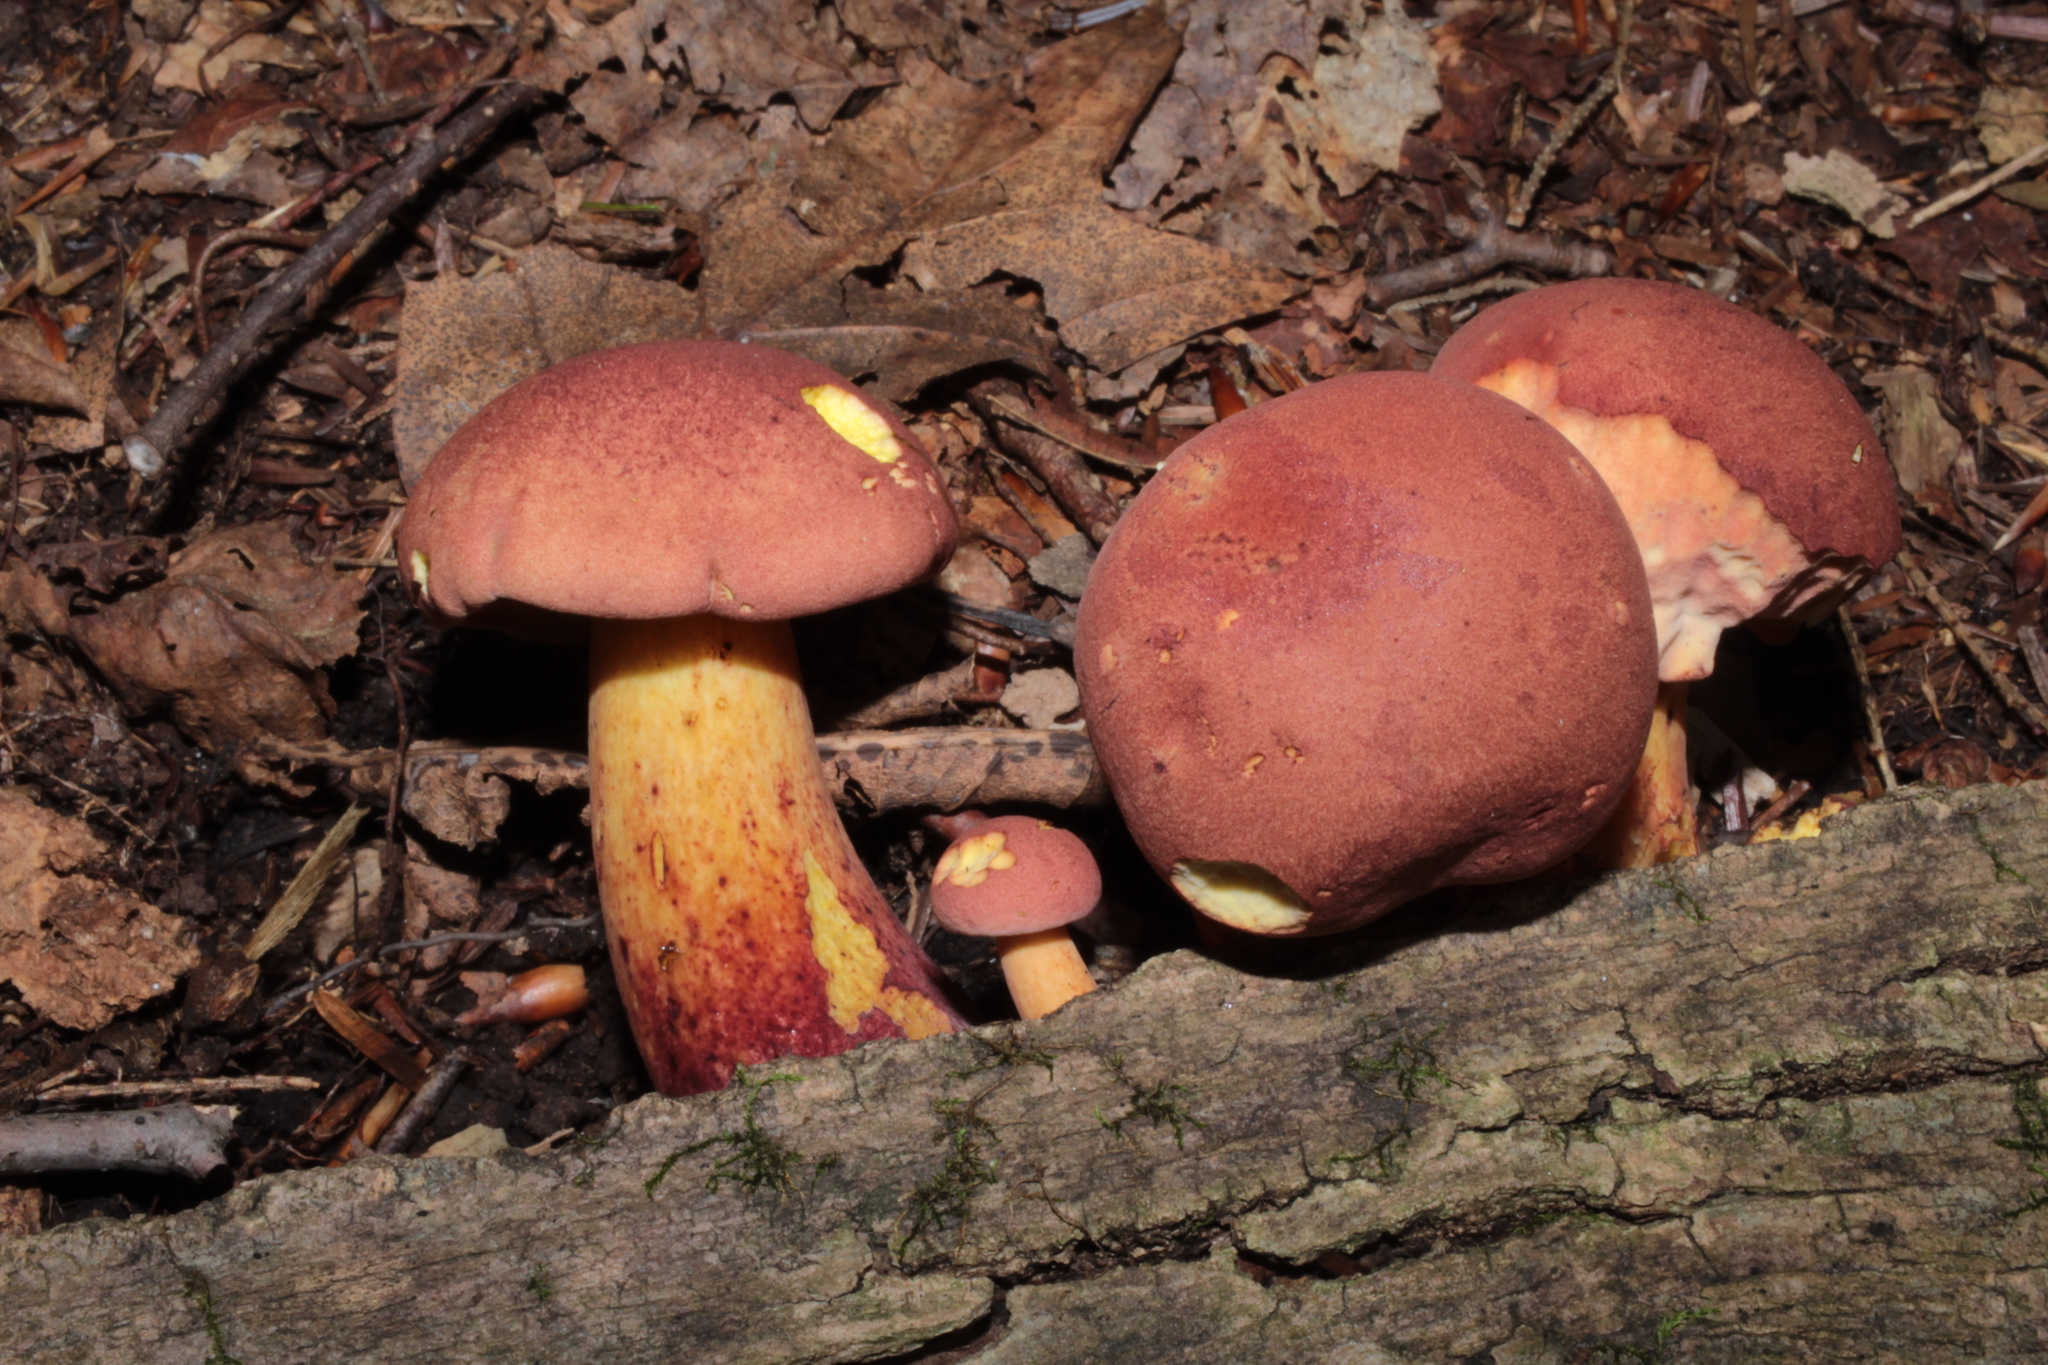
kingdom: Fungi
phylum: Basidiomycota
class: Agaricomycetes
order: Boletales
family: Boletaceae
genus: Baorangia
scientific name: Baorangia bicolor
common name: Two-colored bolete
